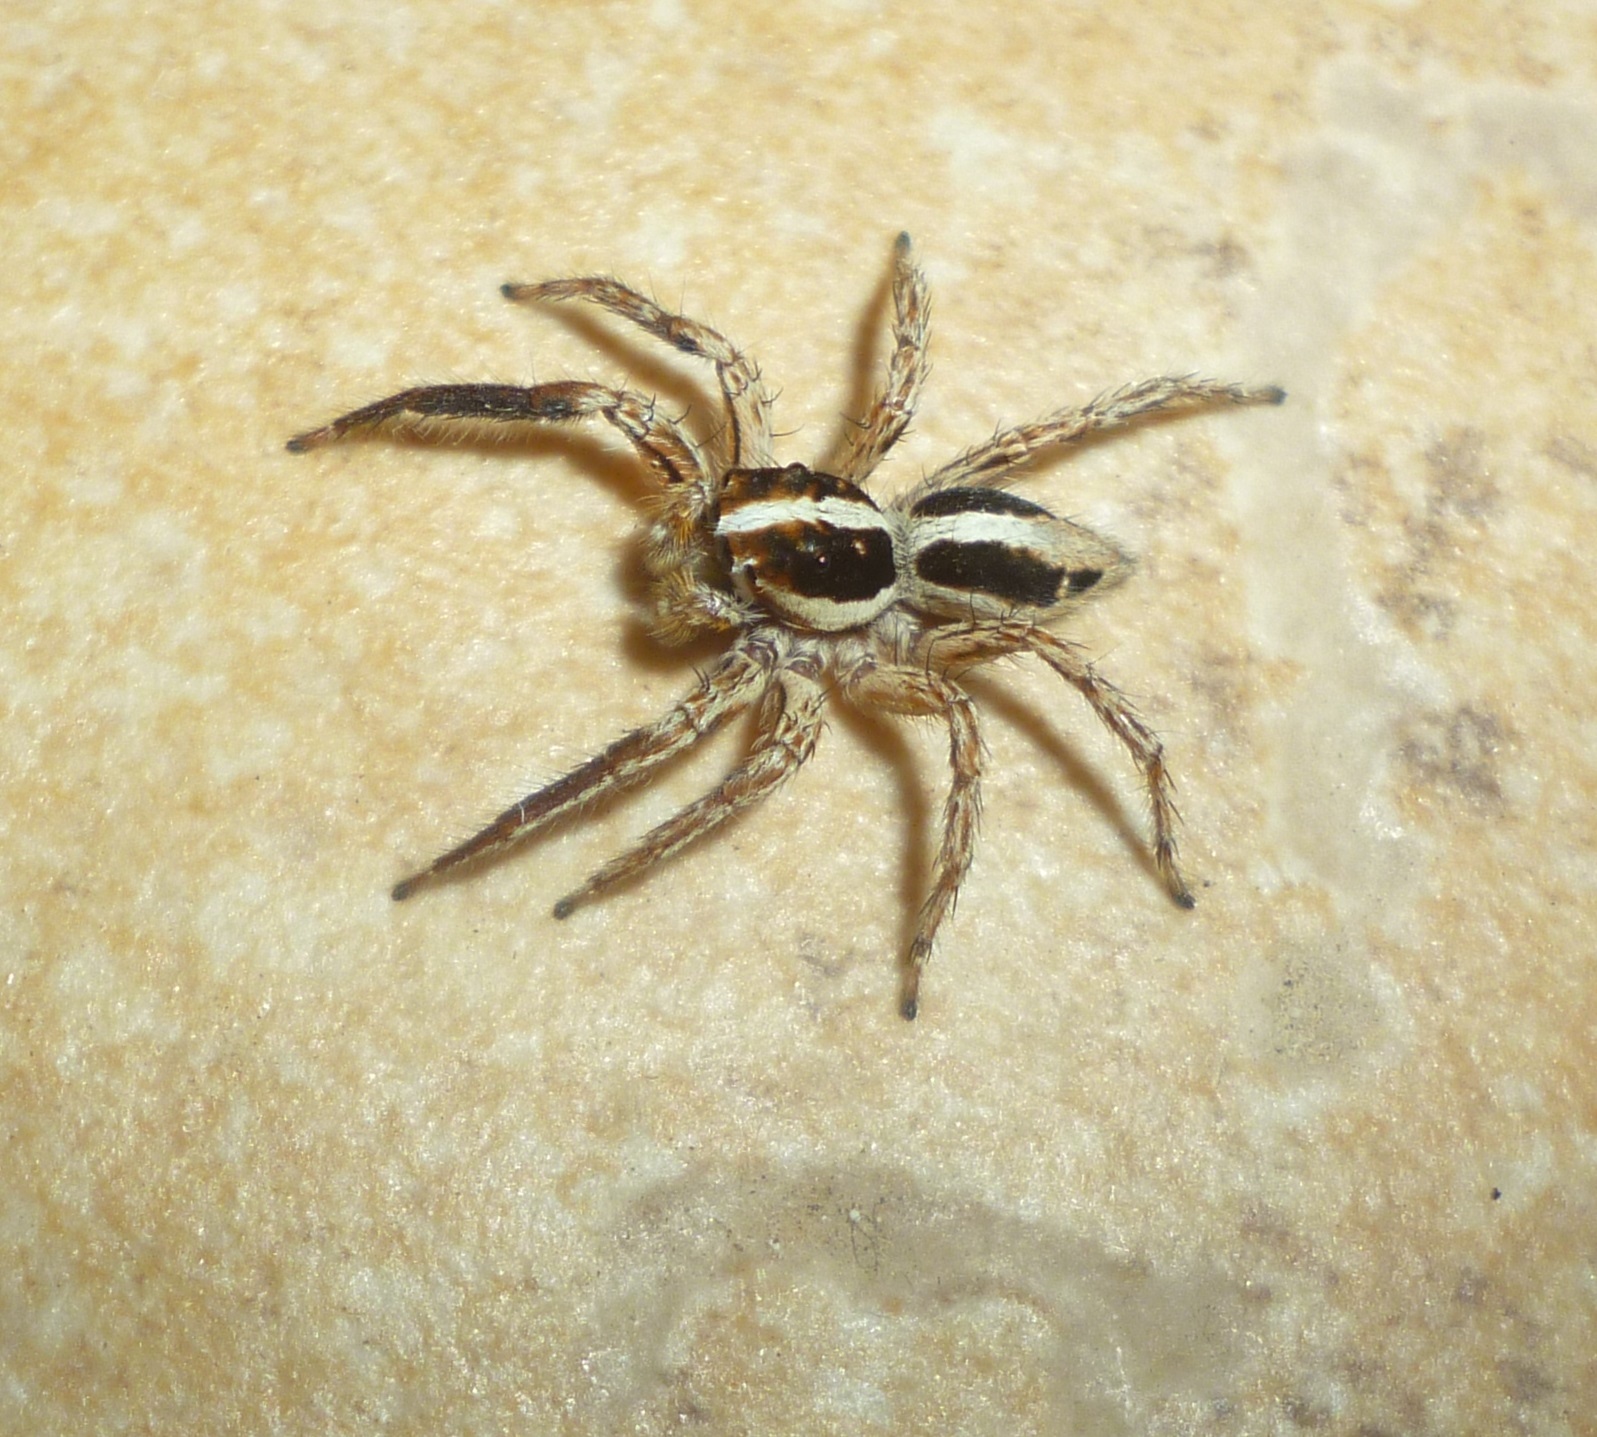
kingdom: Animalia
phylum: Arthropoda
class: Arachnida
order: Araneae
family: Salticidae
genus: Plexippus
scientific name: Plexippus paykulli
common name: Pantropical jumper
